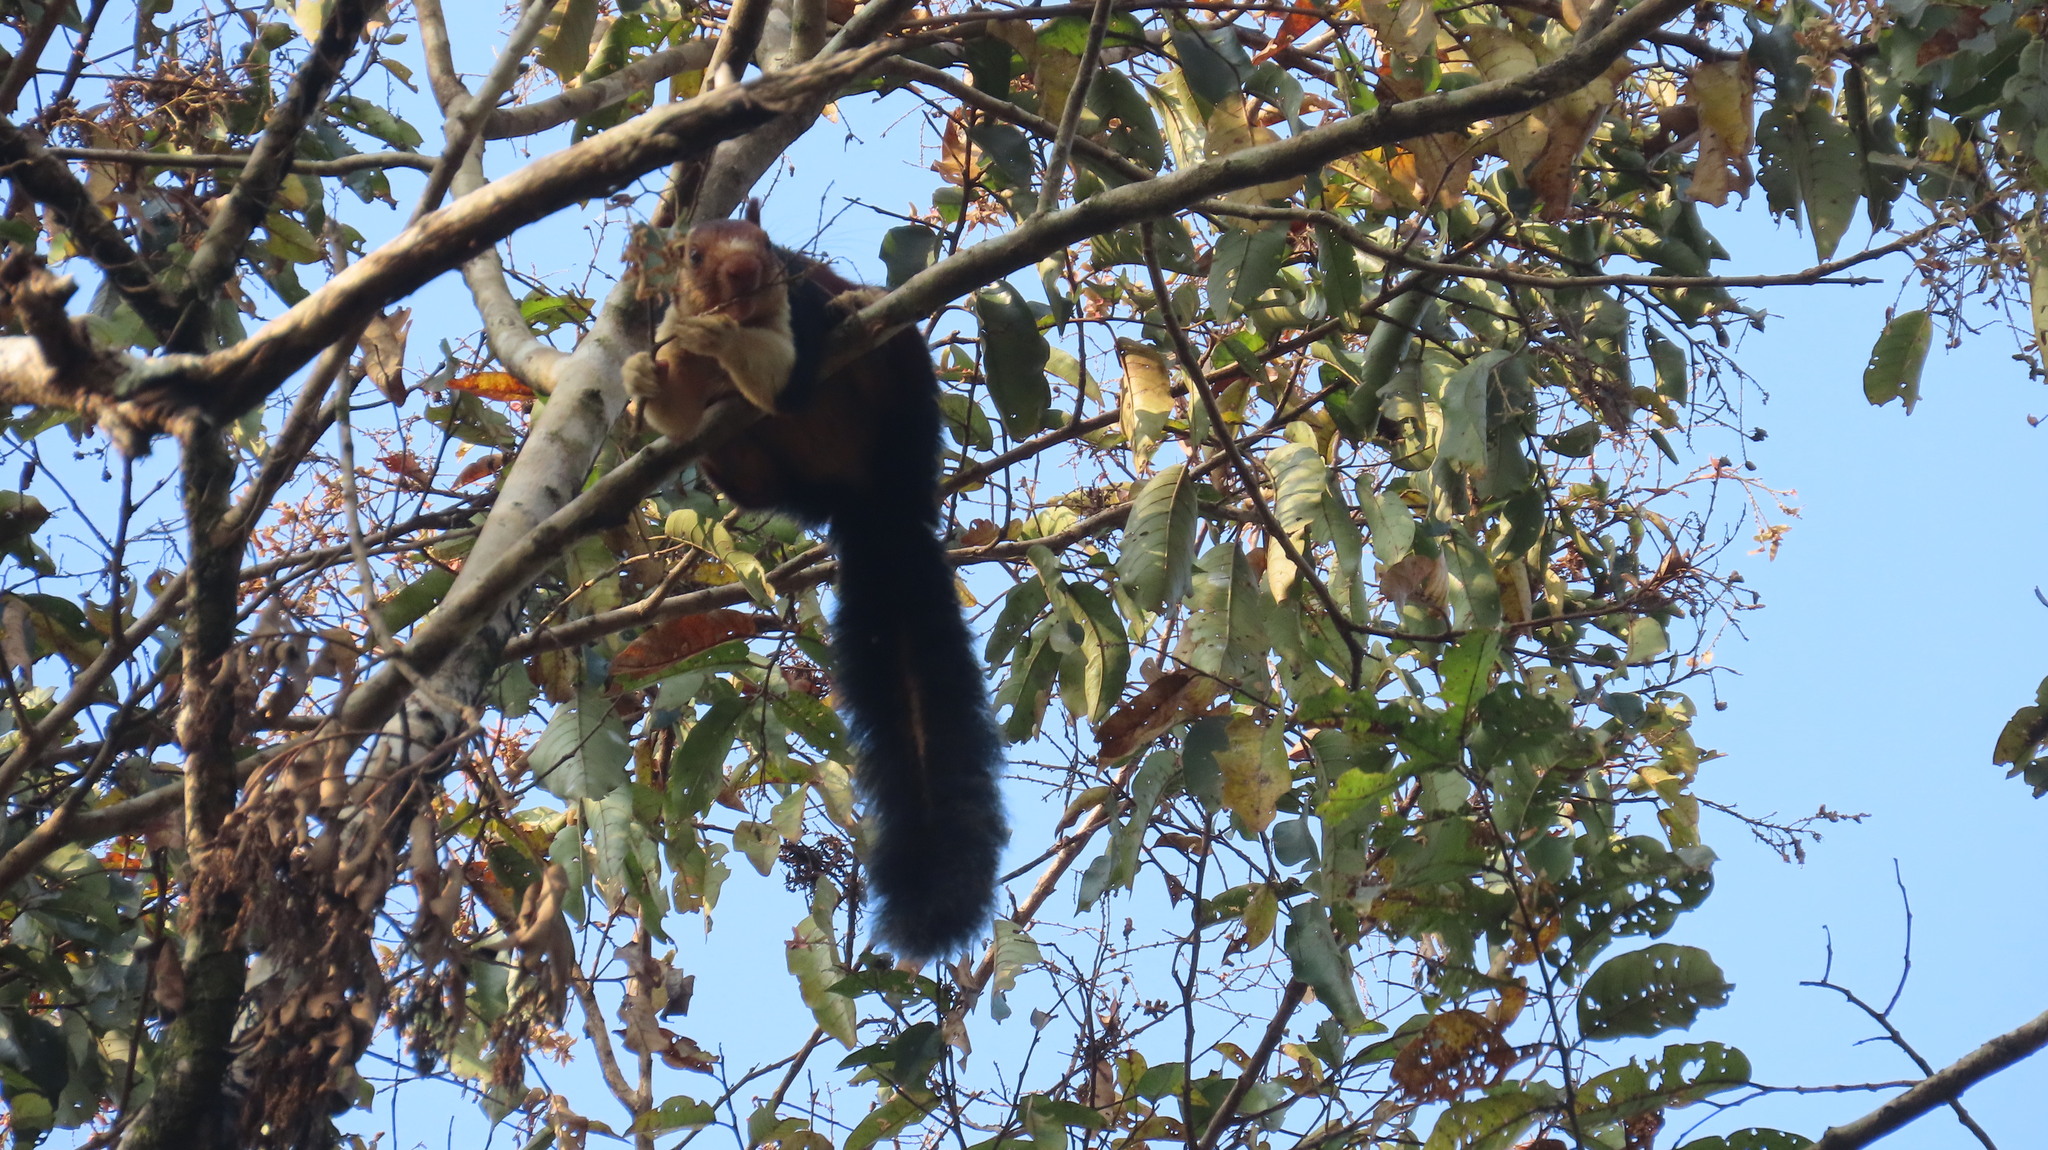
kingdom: Animalia
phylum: Chordata
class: Mammalia
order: Rodentia
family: Sciuridae
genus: Ratufa
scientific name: Ratufa indica
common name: Indian giant squirrel
